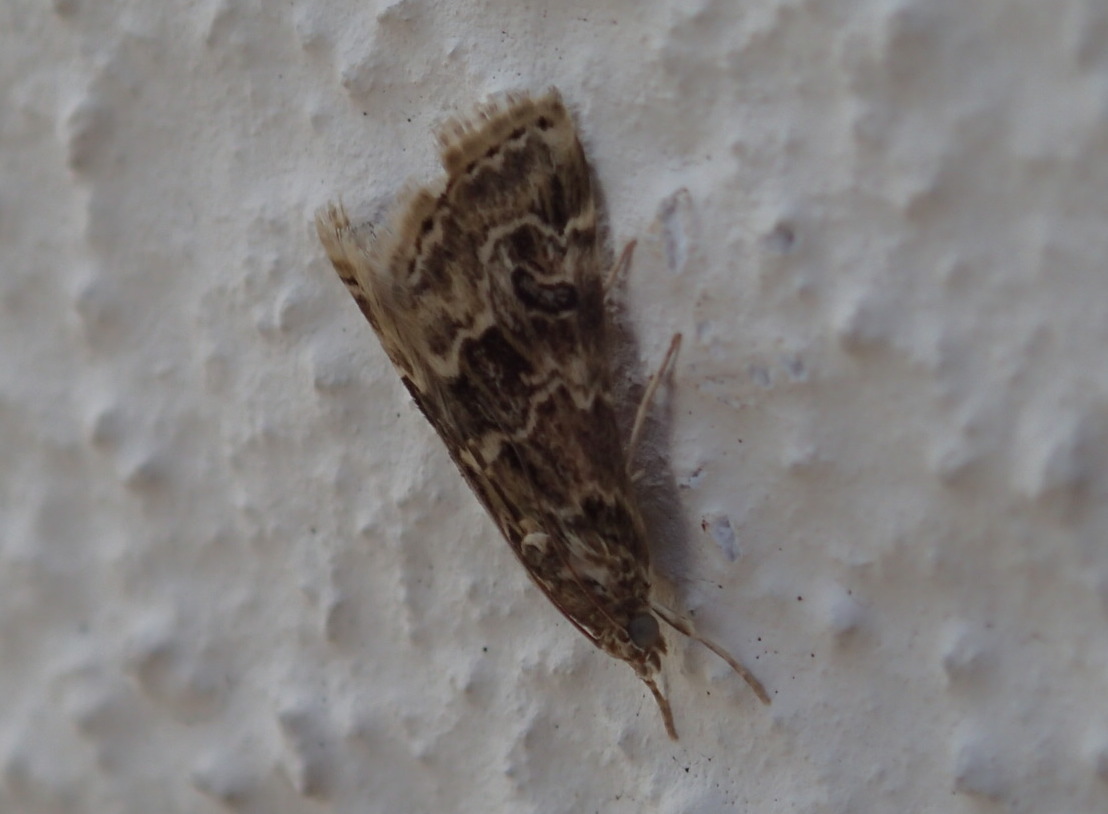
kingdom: Animalia
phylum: Arthropoda
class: Insecta
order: Lepidoptera
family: Crambidae
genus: Hellula
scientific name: Hellula undalis
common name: Cabbage webworm
